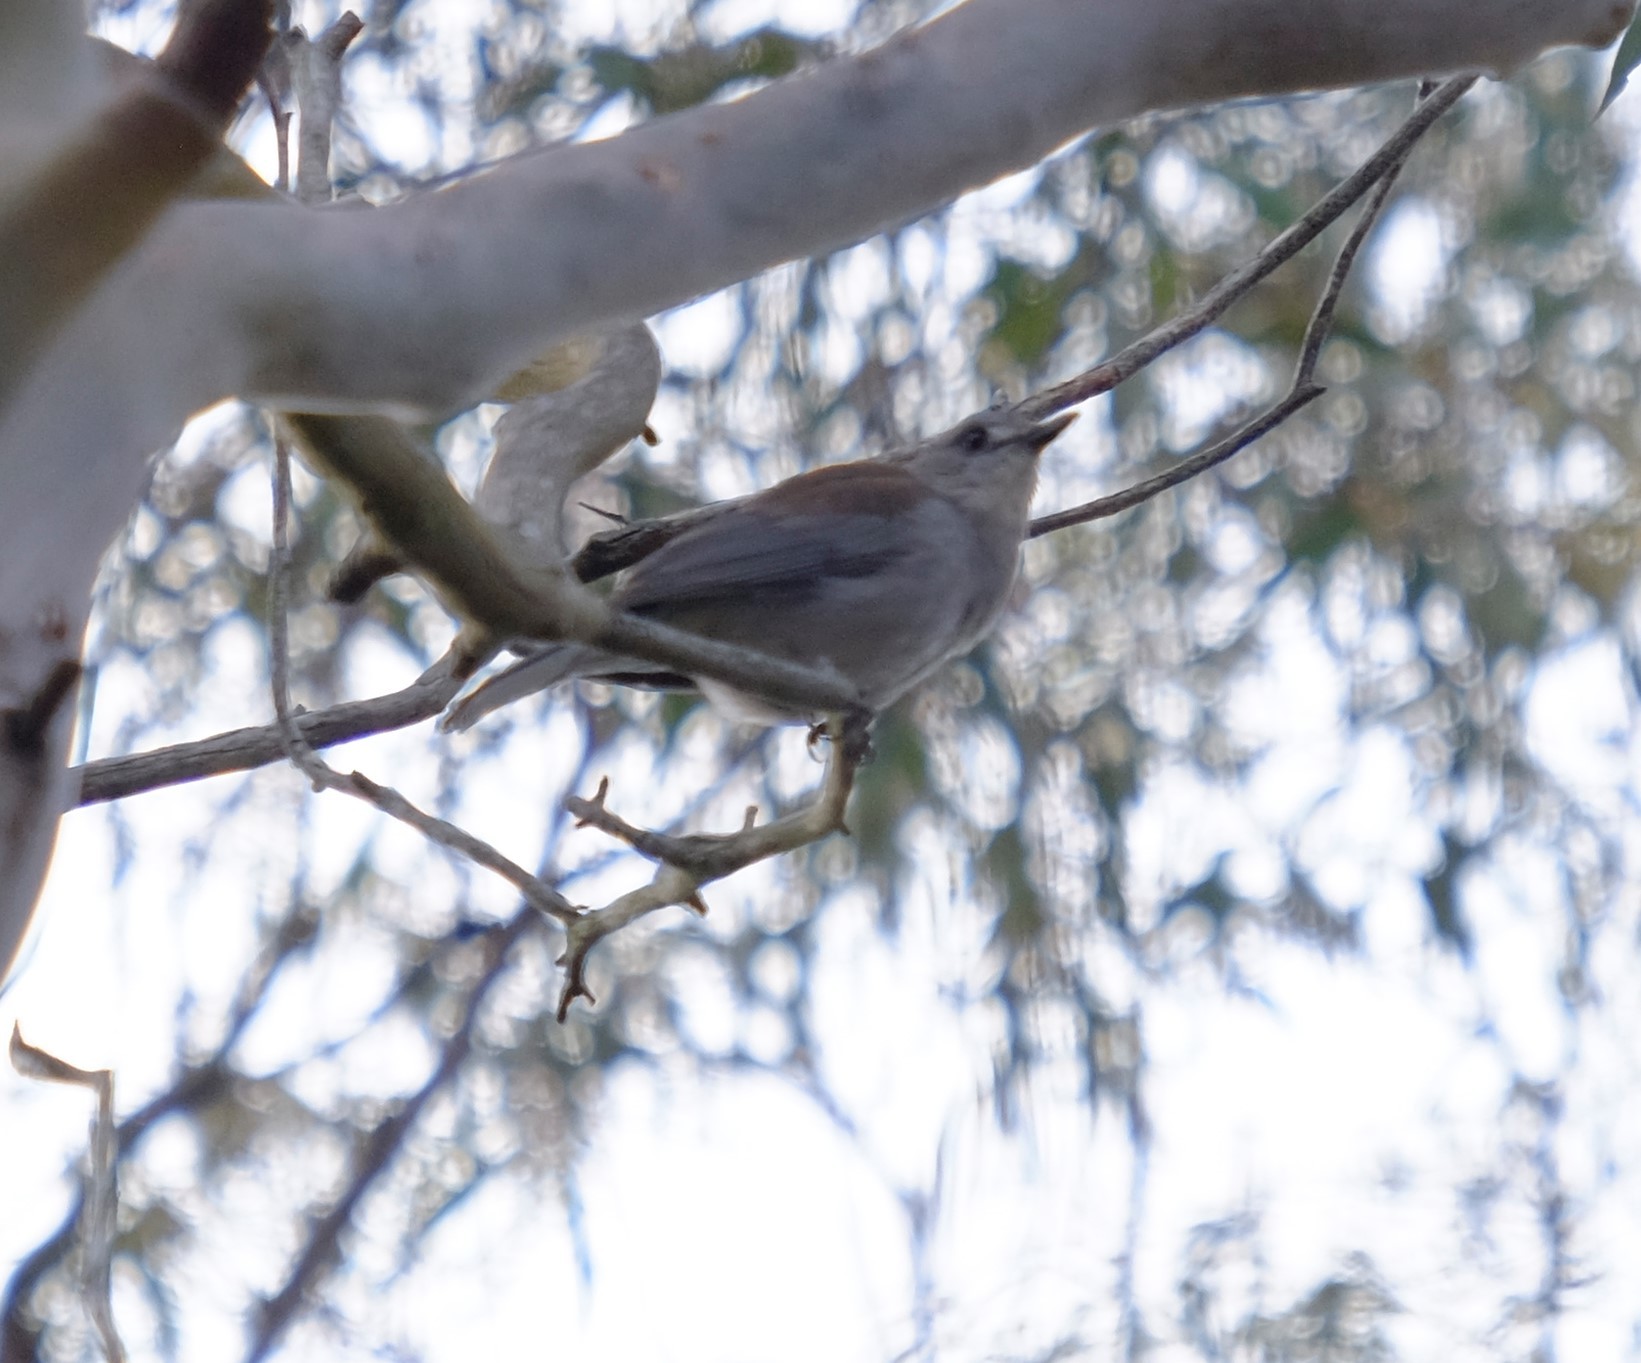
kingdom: Animalia
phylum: Chordata
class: Aves
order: Passeriformes
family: Pachycephalidae
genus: Colluricincla
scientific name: Colluricincla harmonica
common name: Grey shrikethrush
